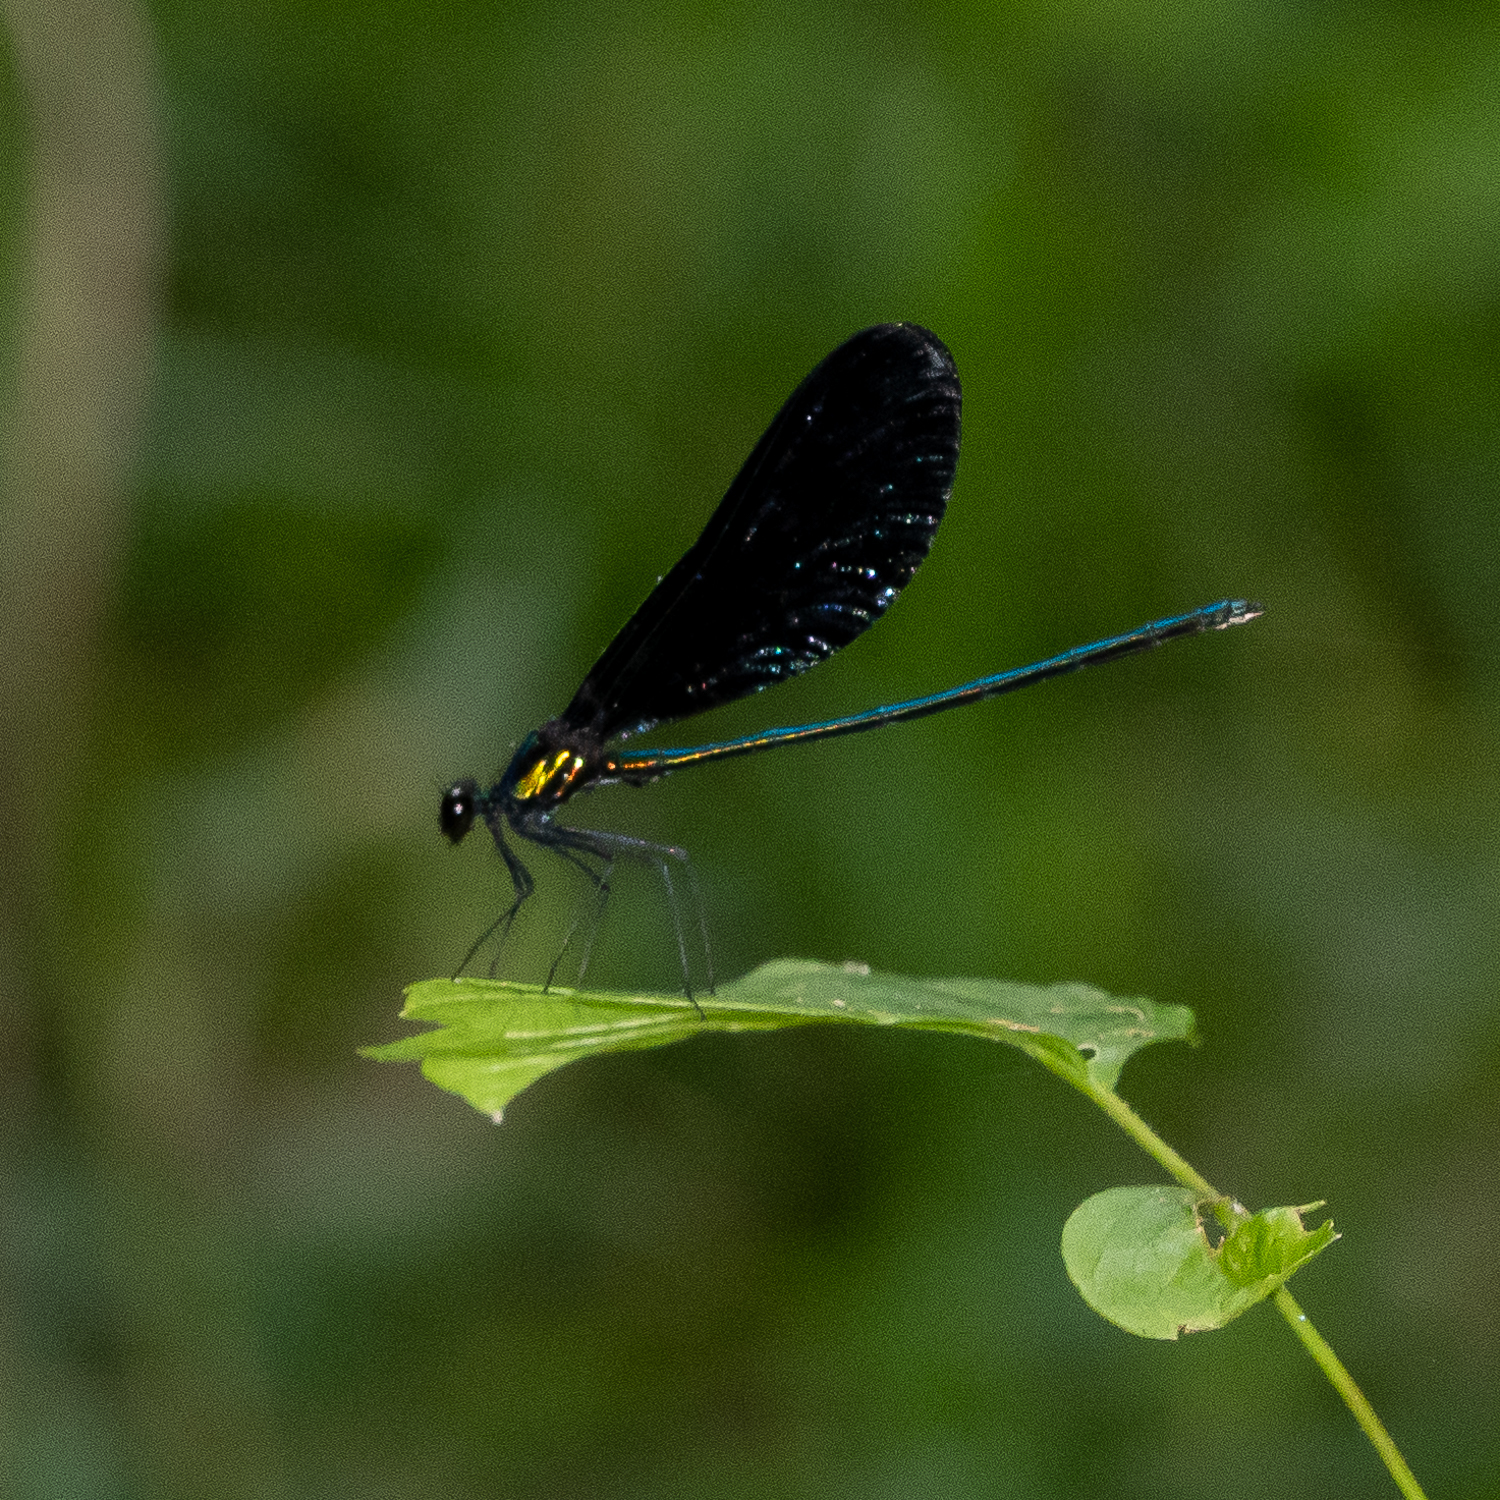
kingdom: Animalia
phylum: Arthropoda
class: Insecta
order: Odonata
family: Calopterygidae
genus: Calopteryx
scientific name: Calopteryx maculata
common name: Ebony jewelwing
